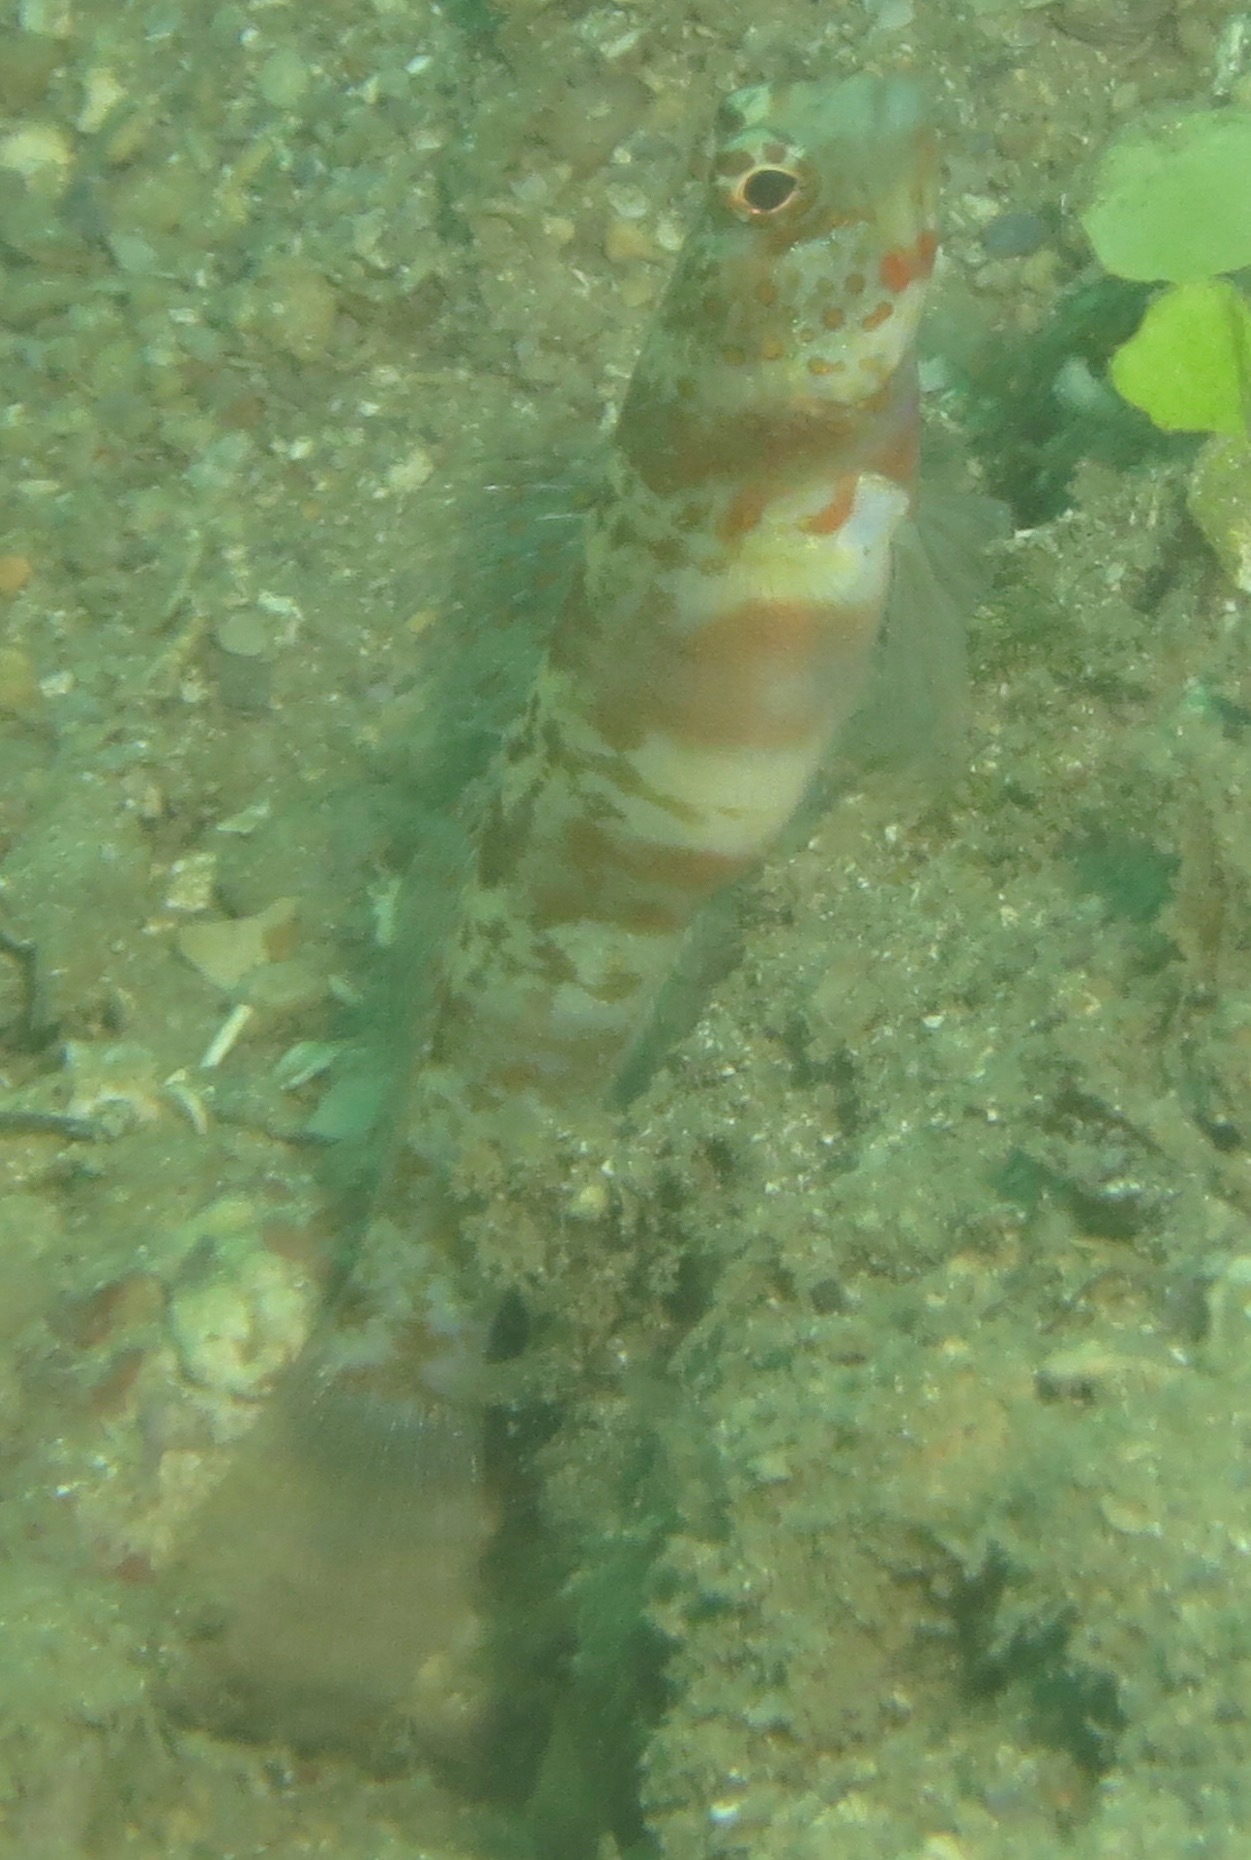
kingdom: Animalia
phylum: Chordata
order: Perciformes
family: Gobiidae
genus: Amblyeleotris
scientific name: Amblyeleotris periophthalma
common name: Periophthalma prawn-goby
